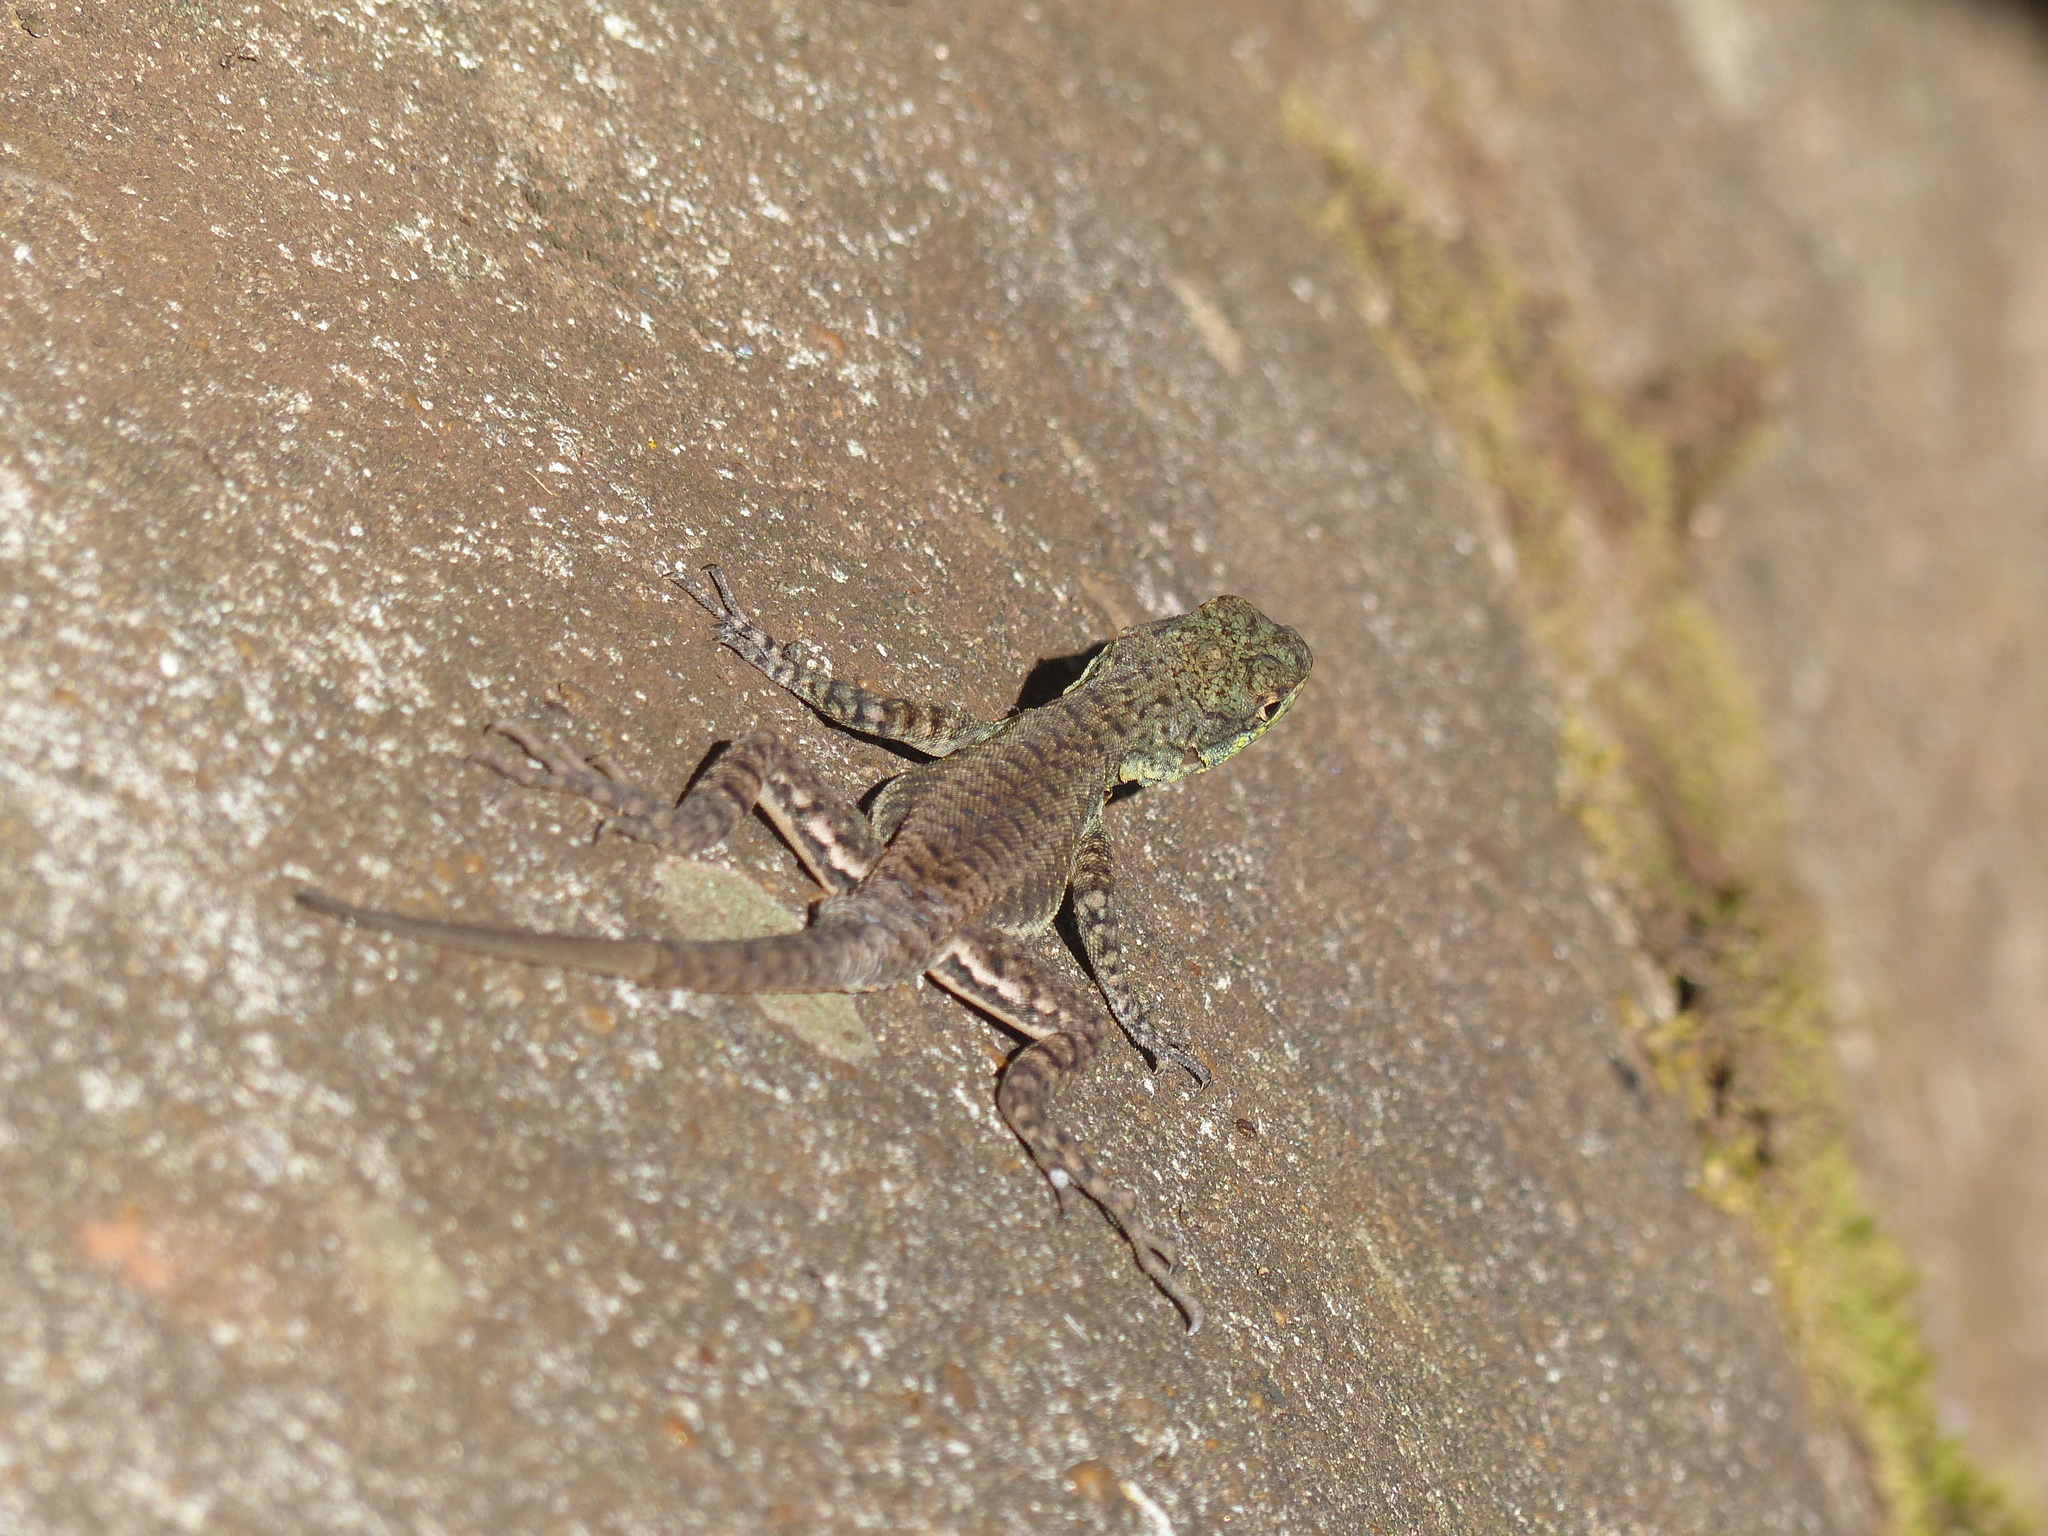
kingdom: Animalia
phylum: Chordata
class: Squamata
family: Tropiduridae
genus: Tropidurus
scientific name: Tropidurus catalanensis
